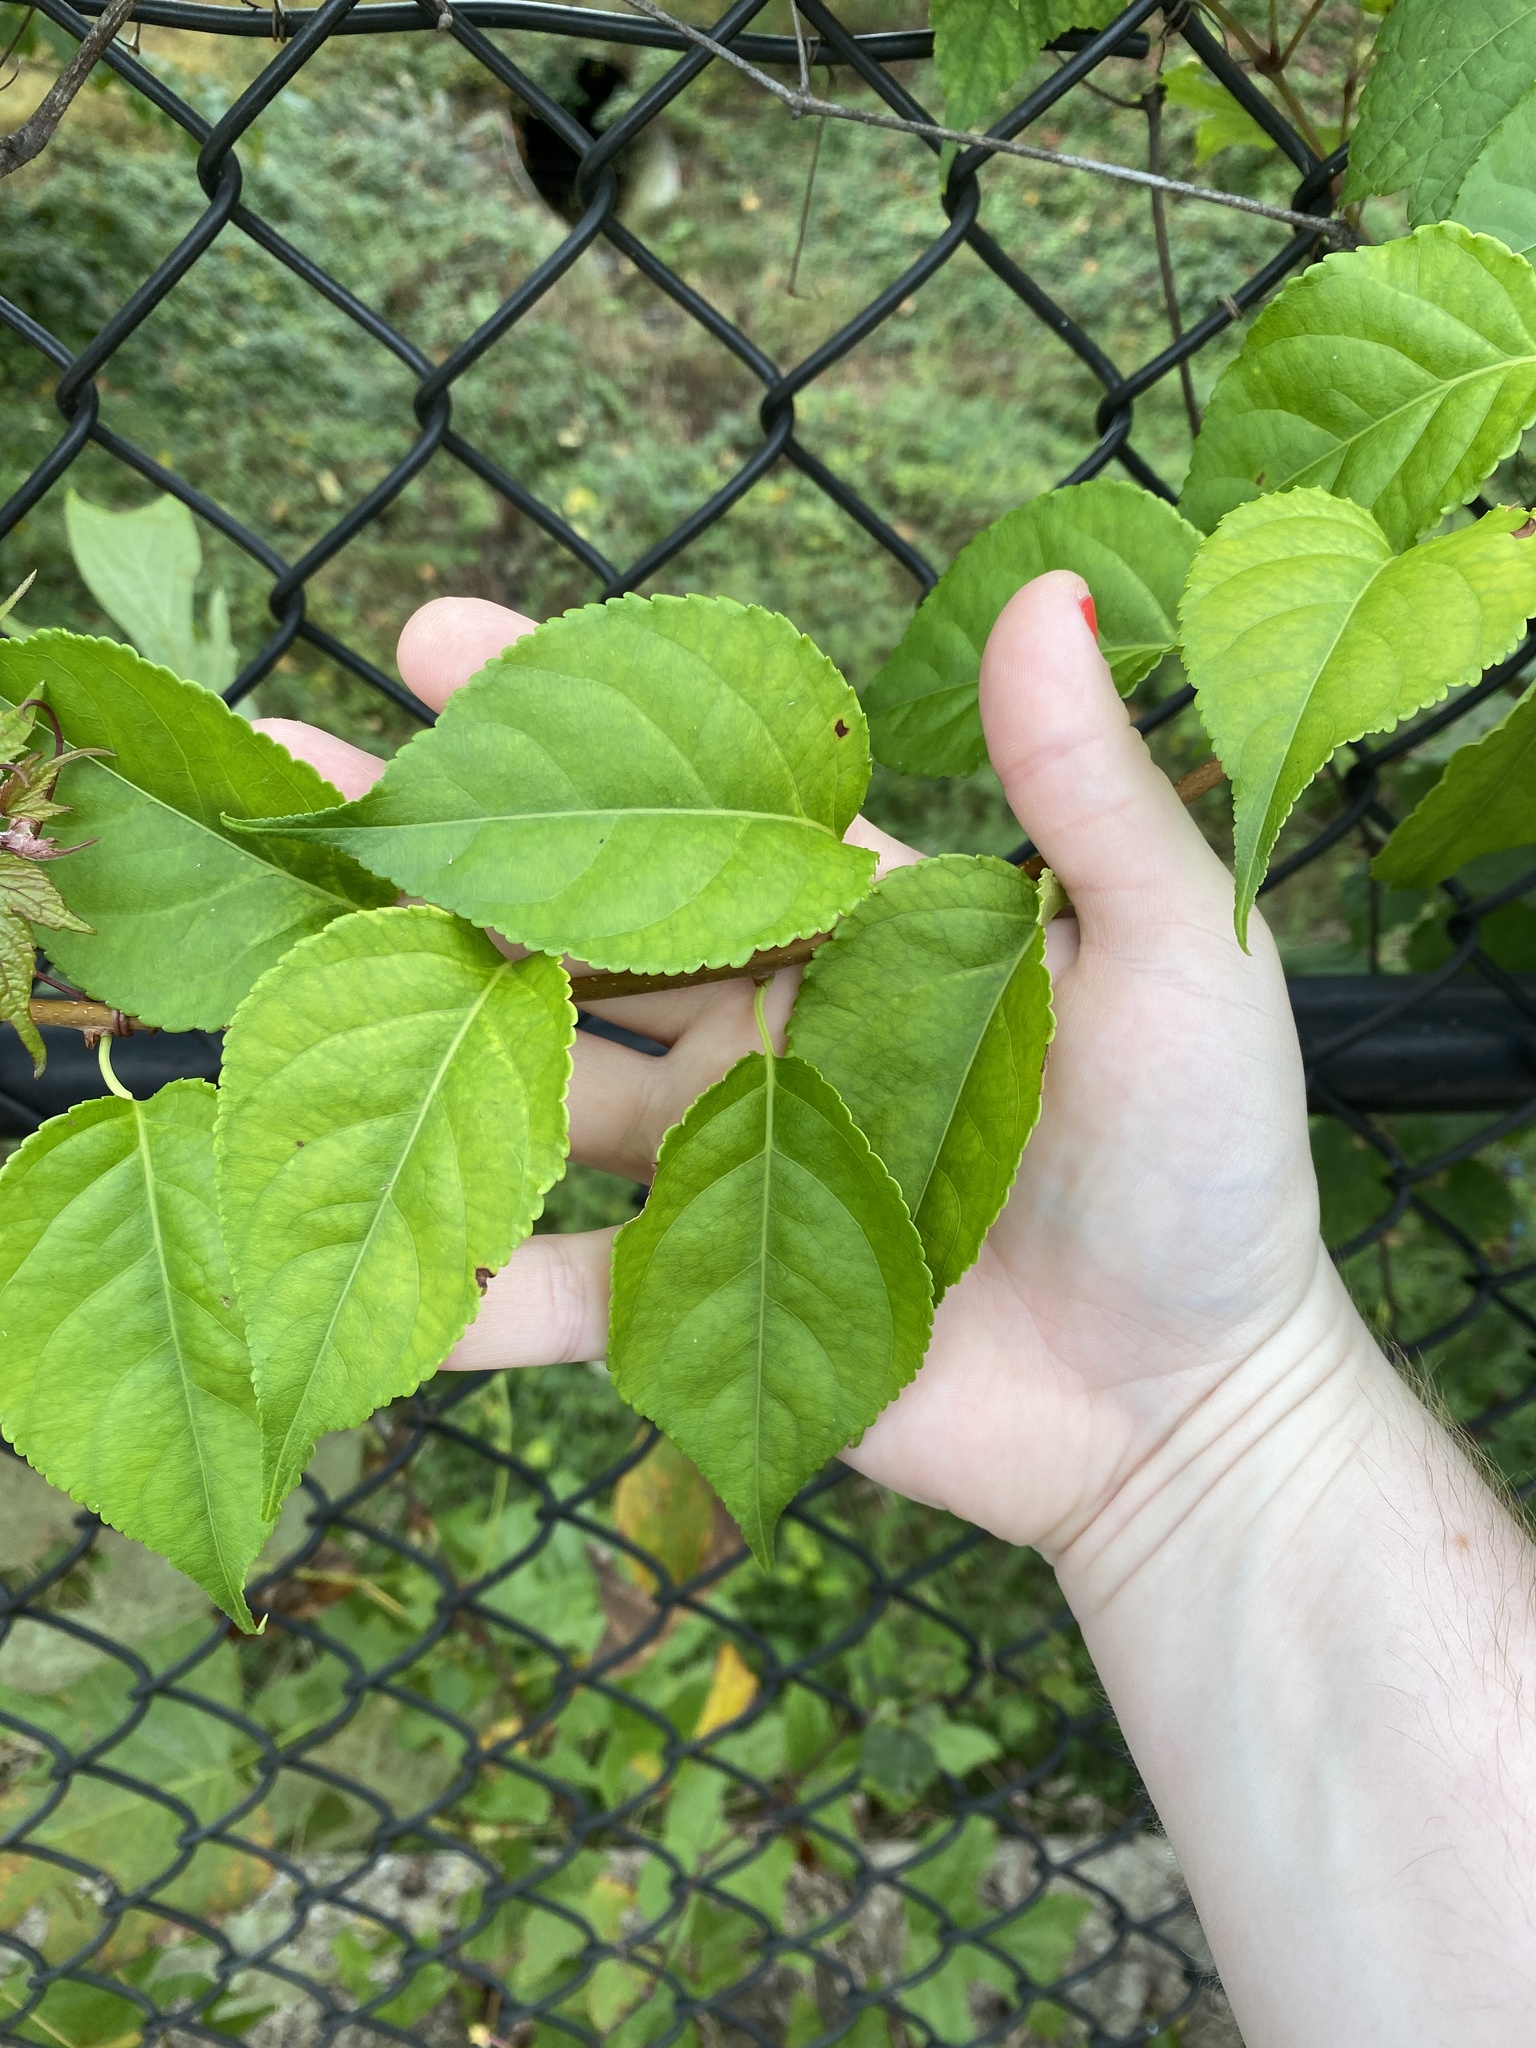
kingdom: Plantae
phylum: Tracheophyta
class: Magnoliopsida
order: Celastrales
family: Celastraceae
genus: Celastrus
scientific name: Celastrus orbiculatus
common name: Oriental bittersweet
